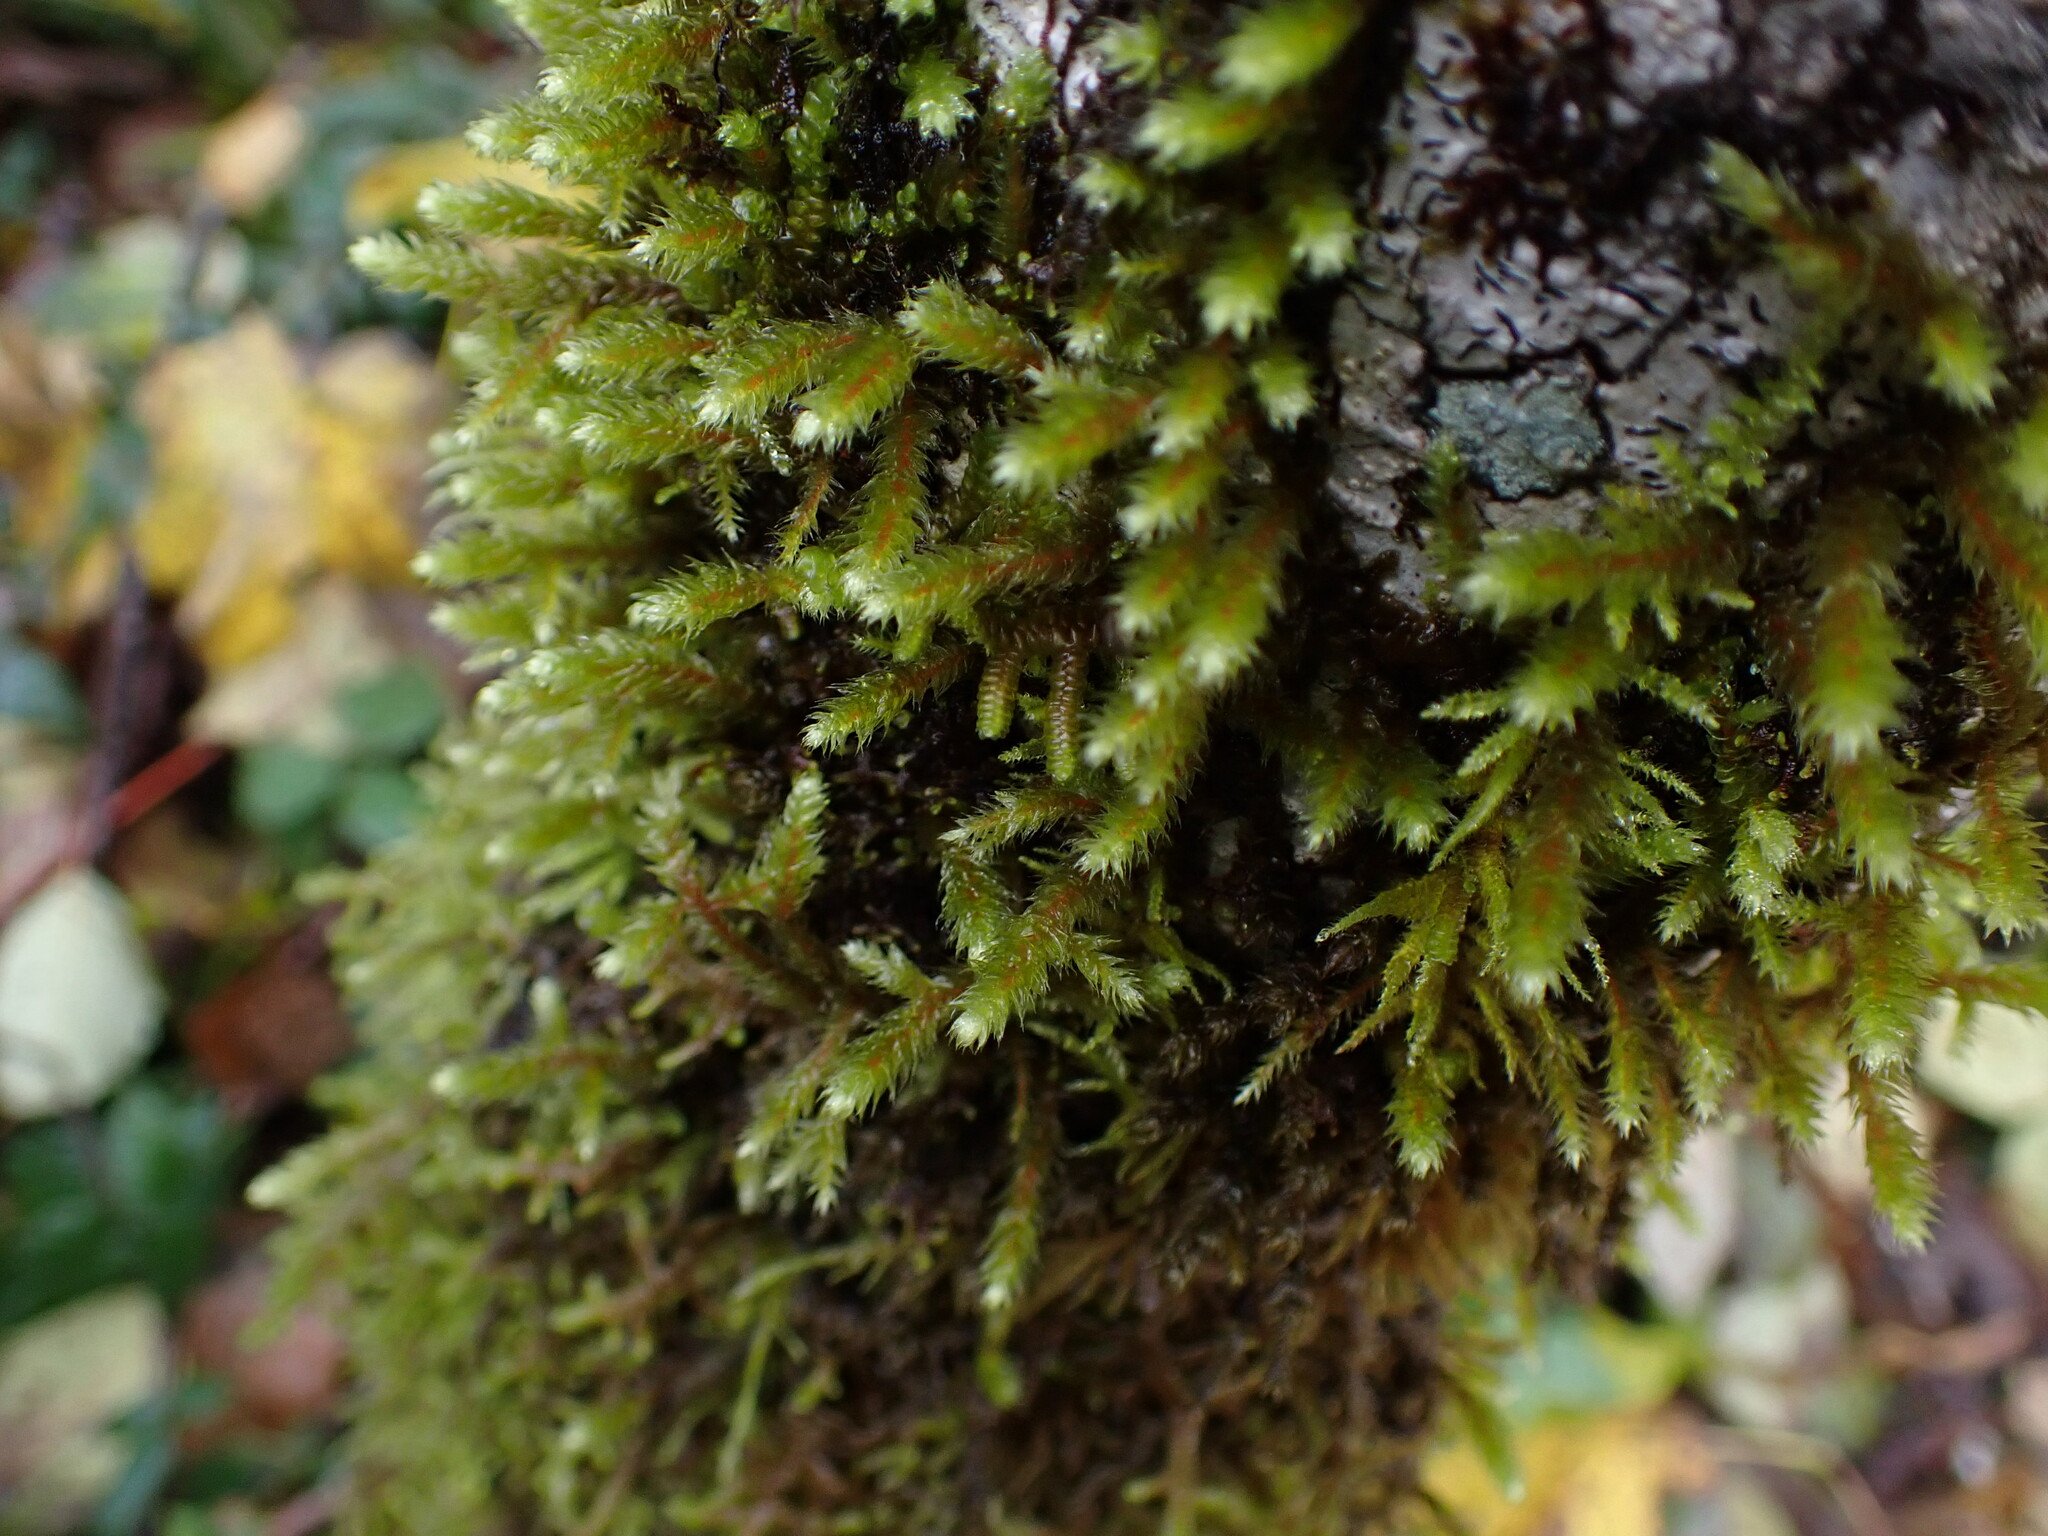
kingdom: Plantae
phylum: Bryophyta
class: Bryopsida
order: Hypnales
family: Antitrichiaceae
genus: Antitrichia
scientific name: Antitrichia curtipendula
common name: Pendulous wing-moss
